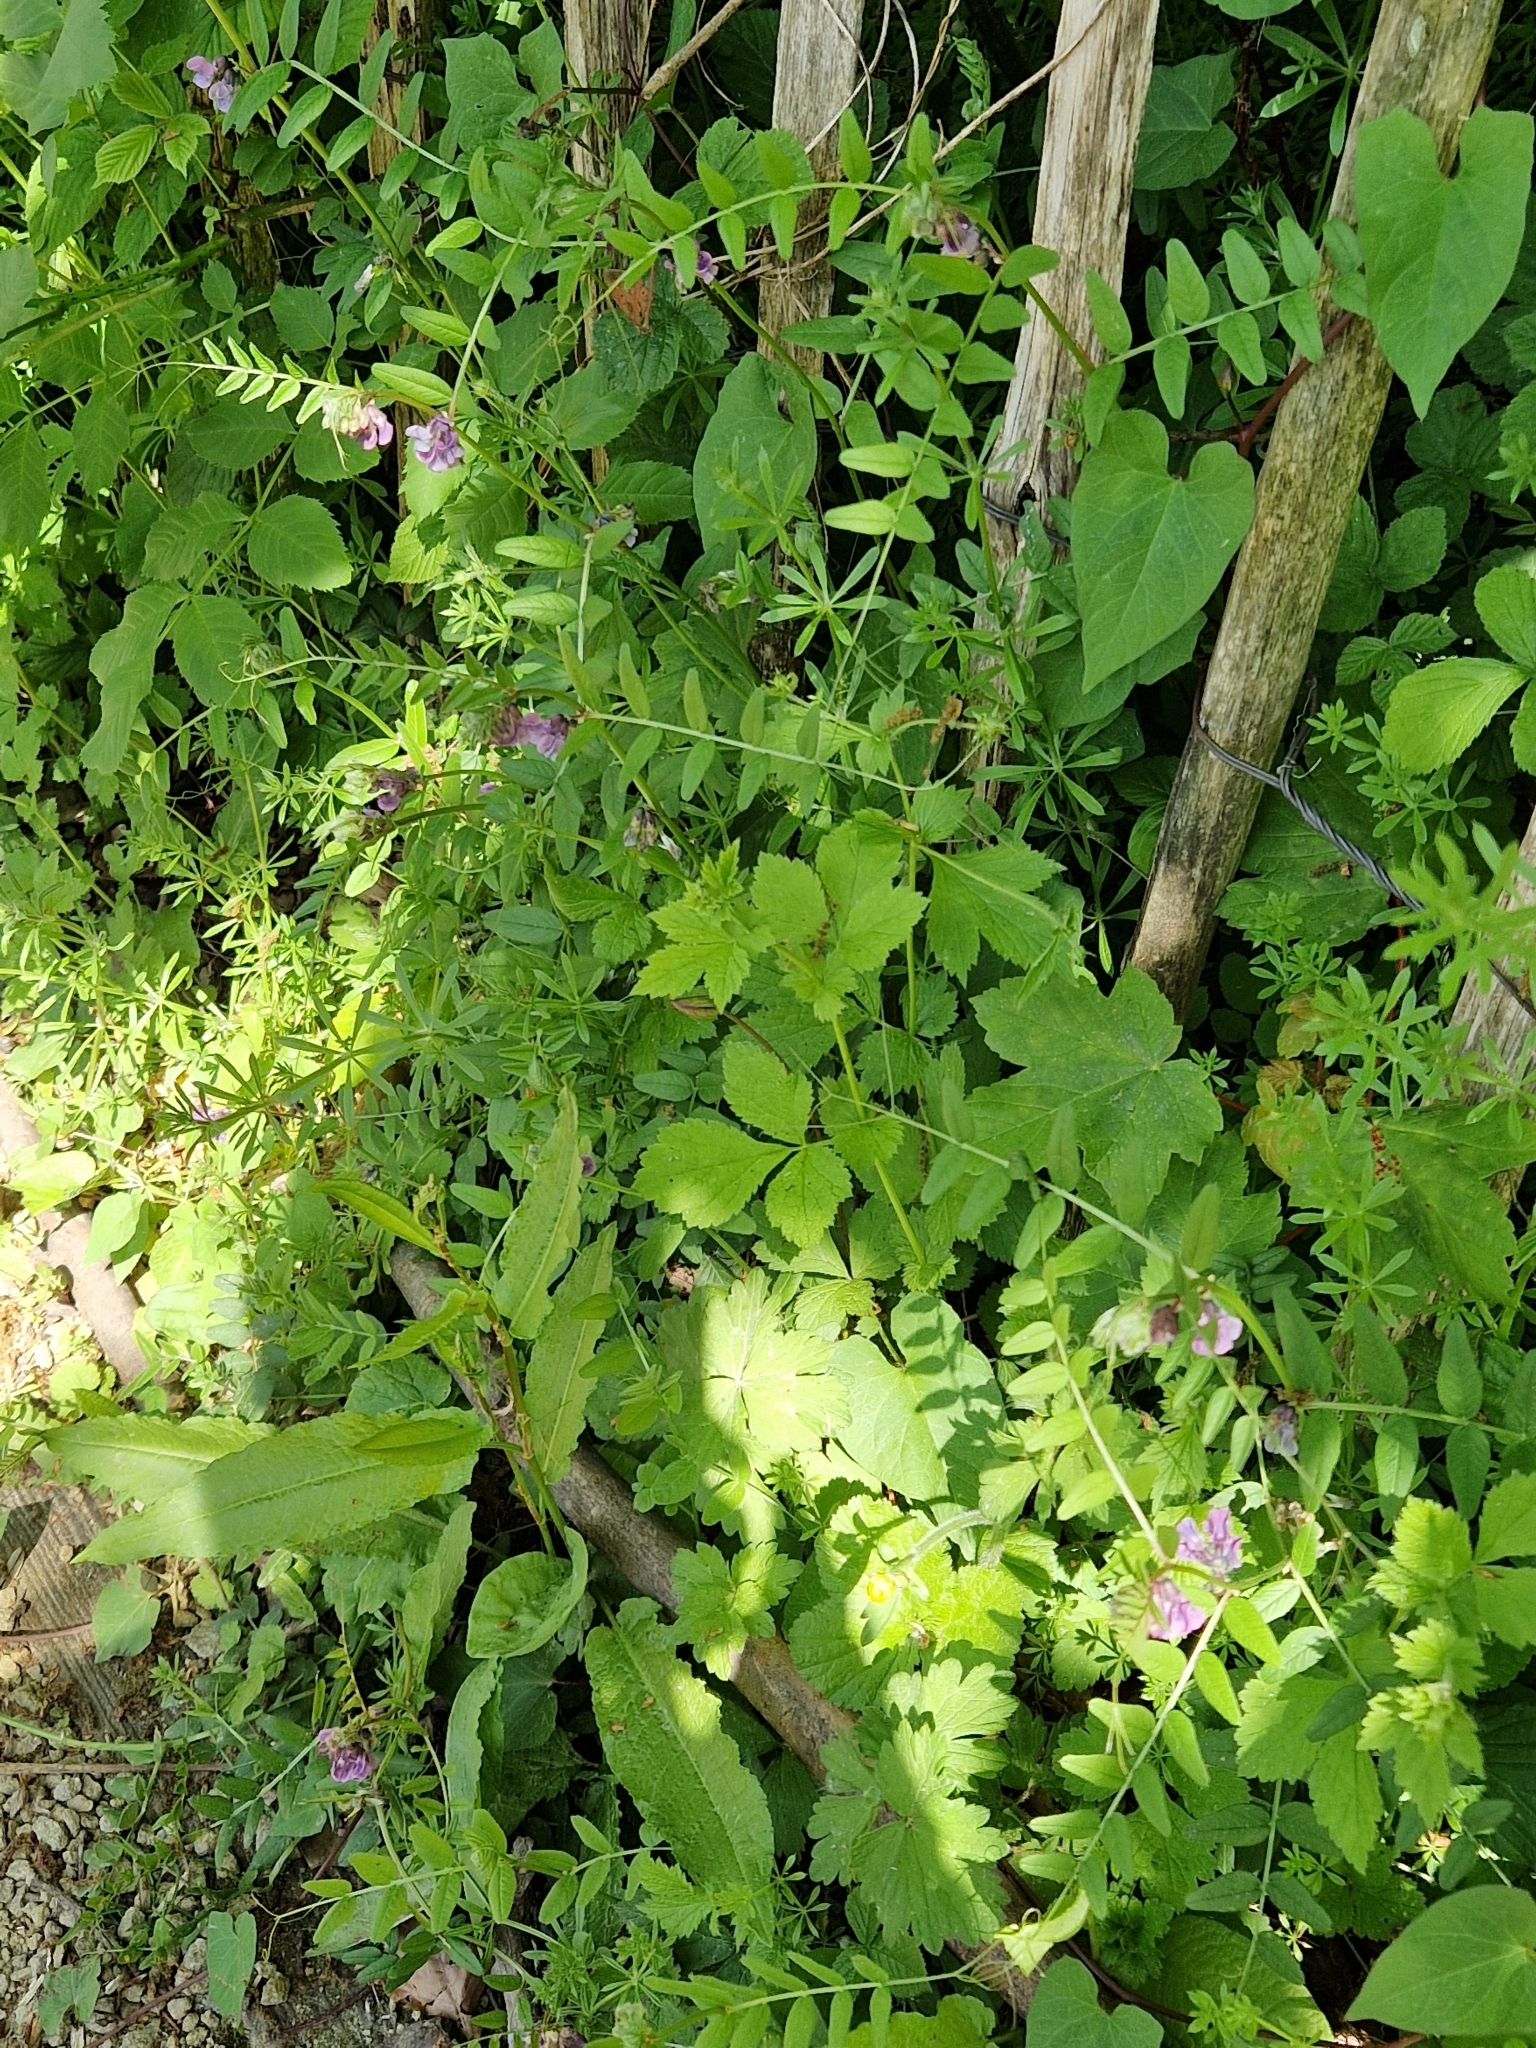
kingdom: Plantae
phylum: Tracheophyta
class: Magnoliopsida
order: Fabales
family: Fabaceae
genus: Vicia
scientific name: Vicia sepium
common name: Bush vetch
